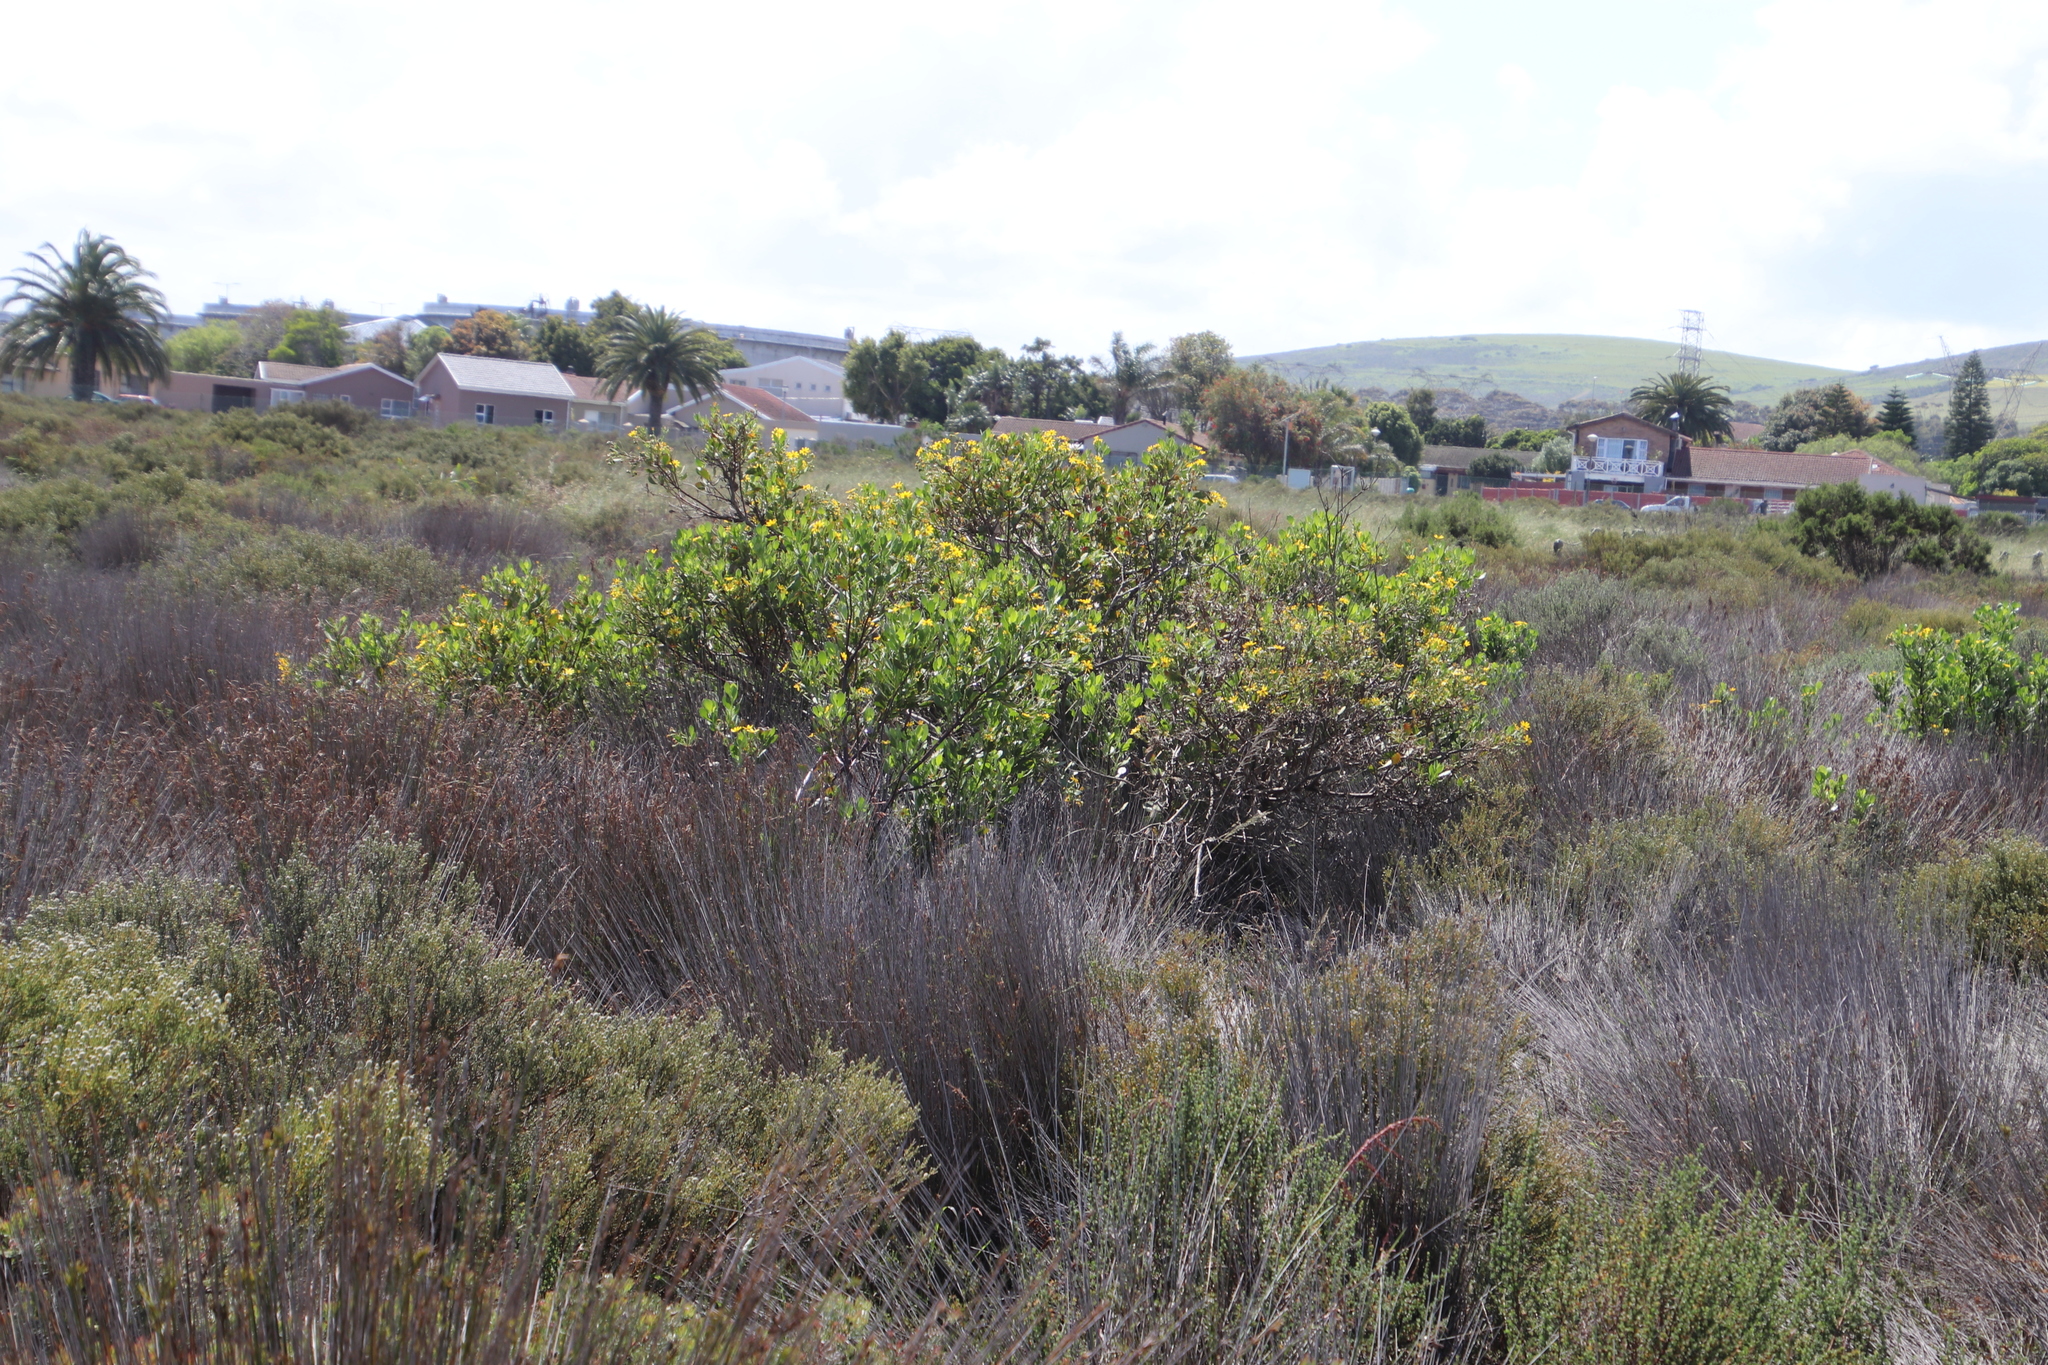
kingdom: Plantae
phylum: Tracheophyta
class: Magnoliopsida
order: Asterales
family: Asteraceae
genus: Osteospermum
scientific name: Osteospermum moniliferum
